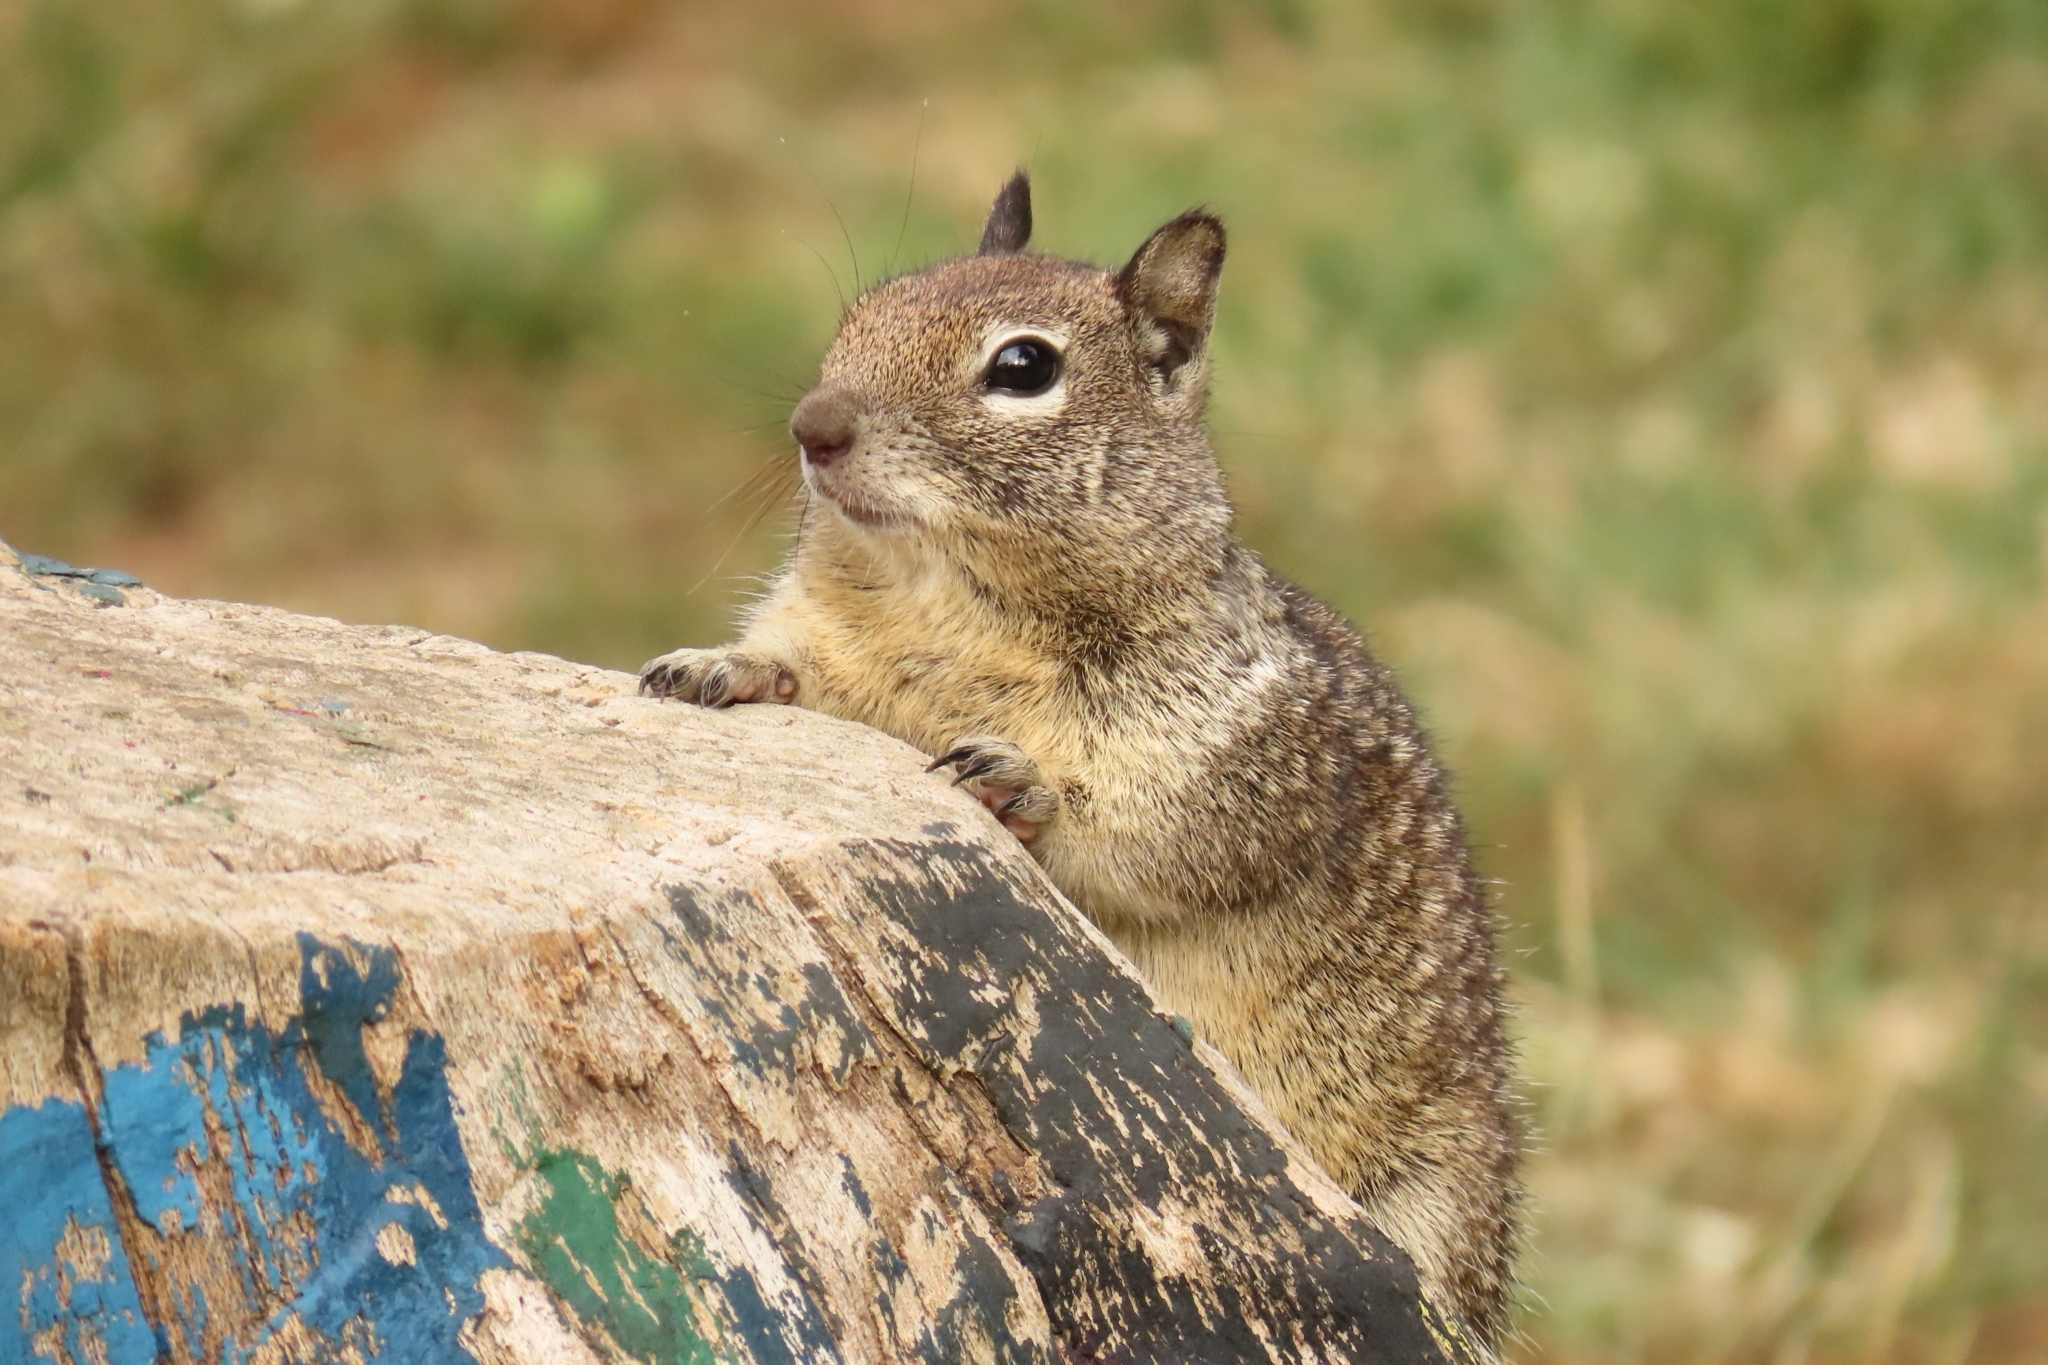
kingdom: Animalia
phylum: Chordata
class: Mammalia
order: Rodentia
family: Sciuridae
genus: Otospermophilus
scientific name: Otospermophilus beecheyi
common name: California ground squirrel
